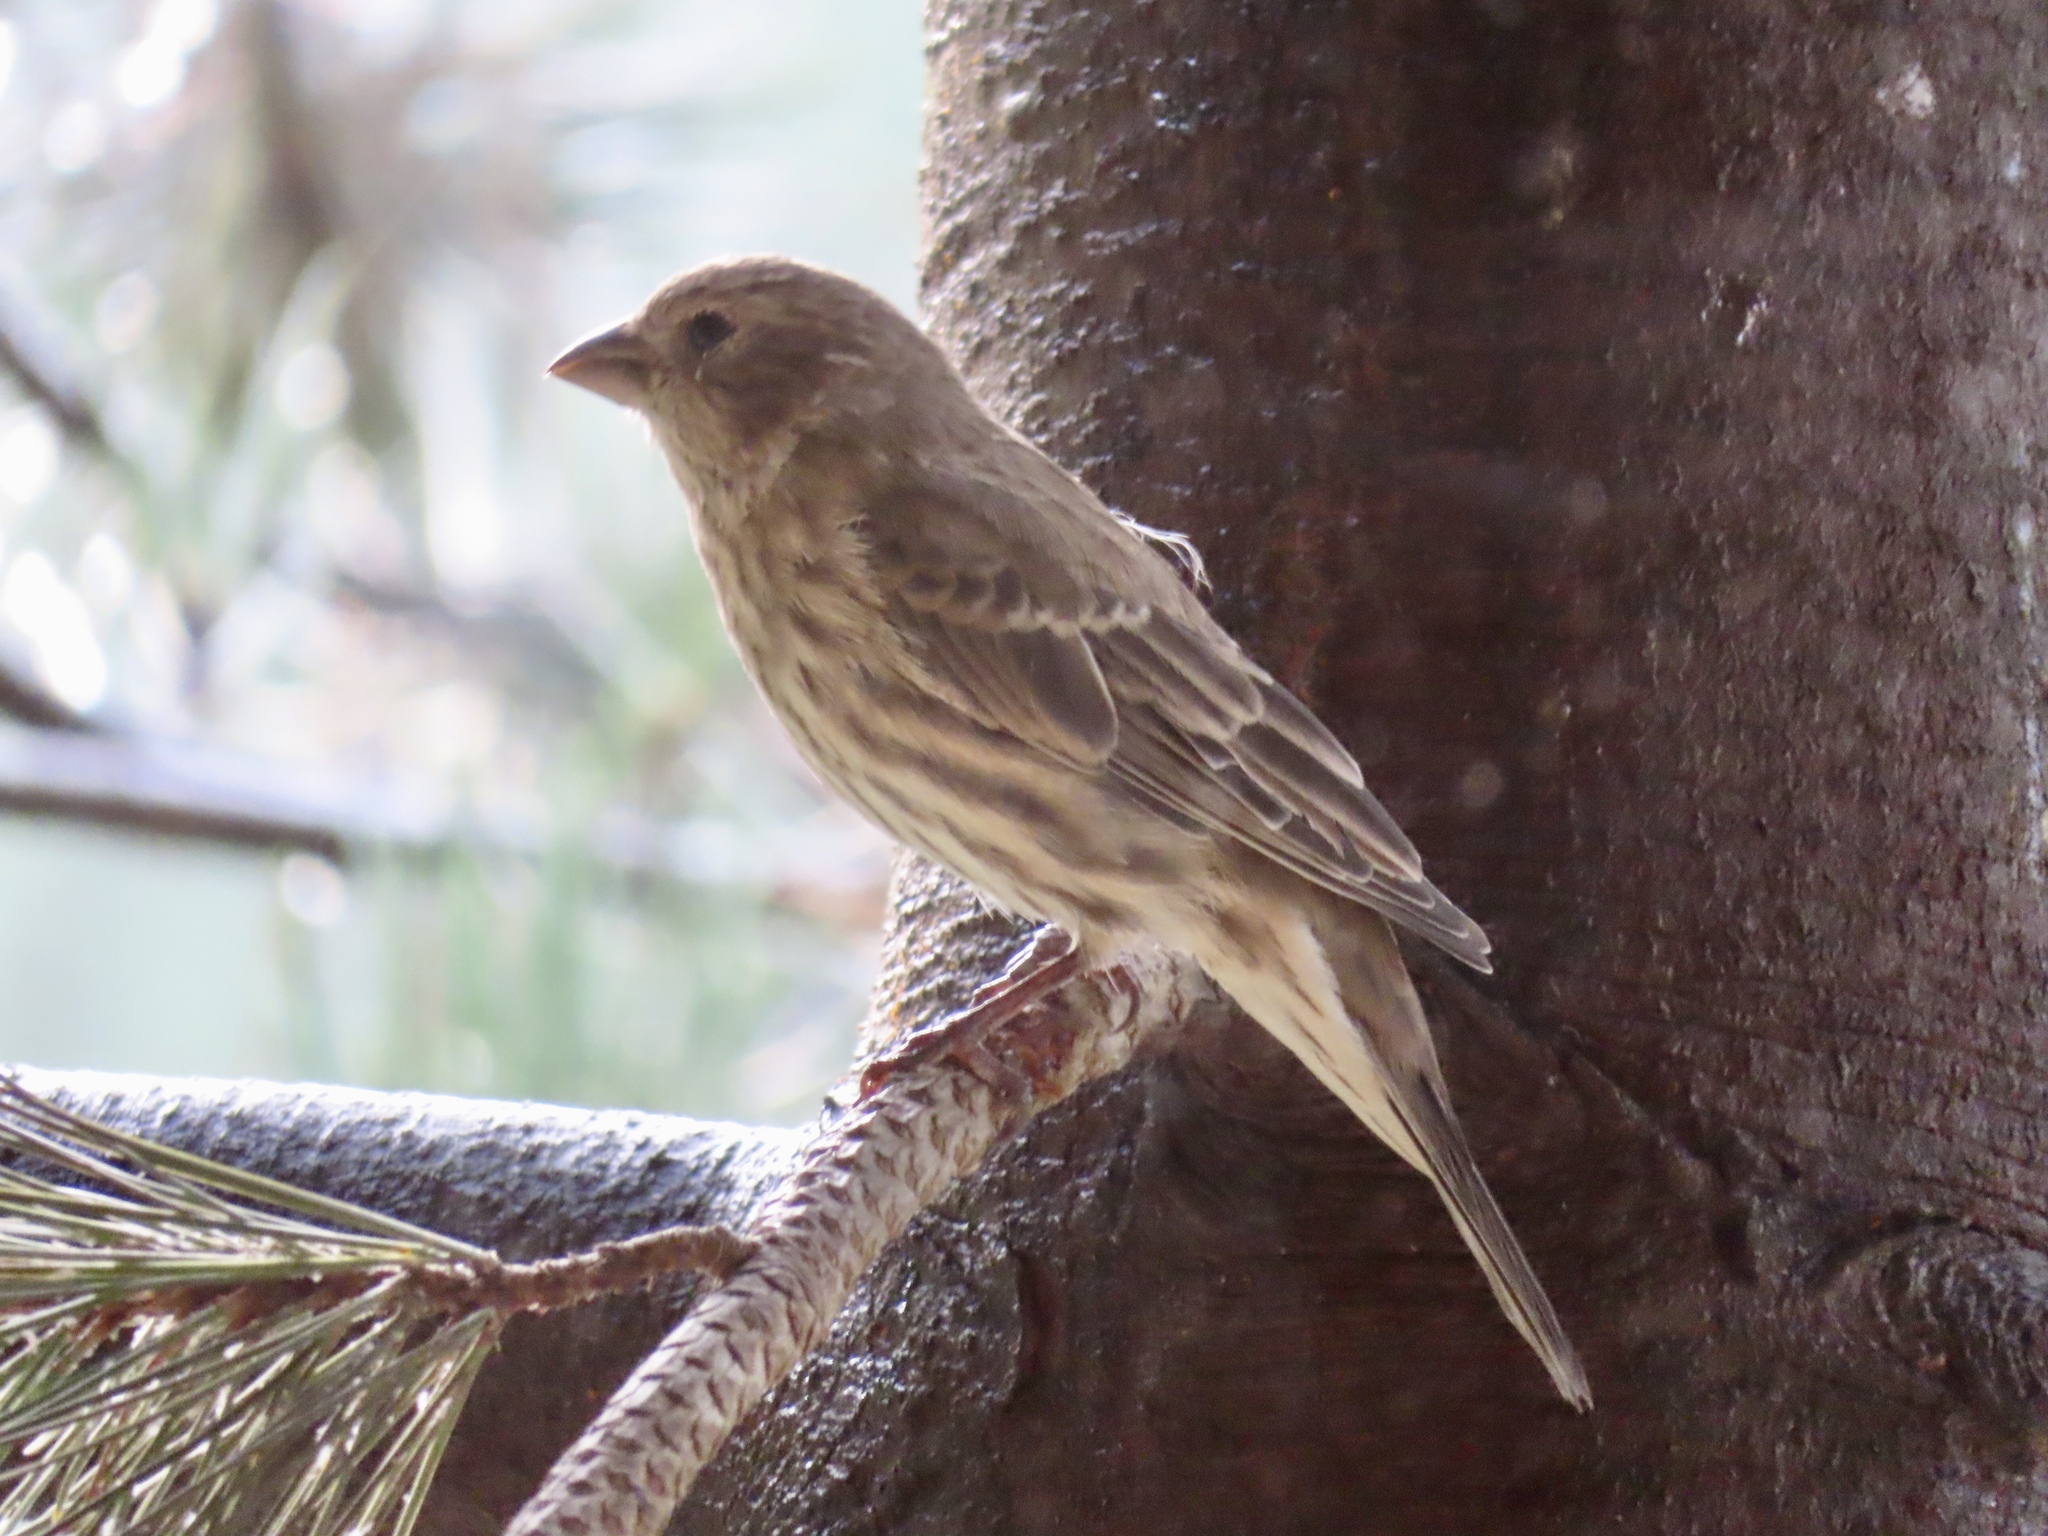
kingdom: Animalia
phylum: Chordata
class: Aves
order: Passeriformes
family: Fringillidae
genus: Haemorhous
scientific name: Haemorhous mexicanus
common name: House finch
